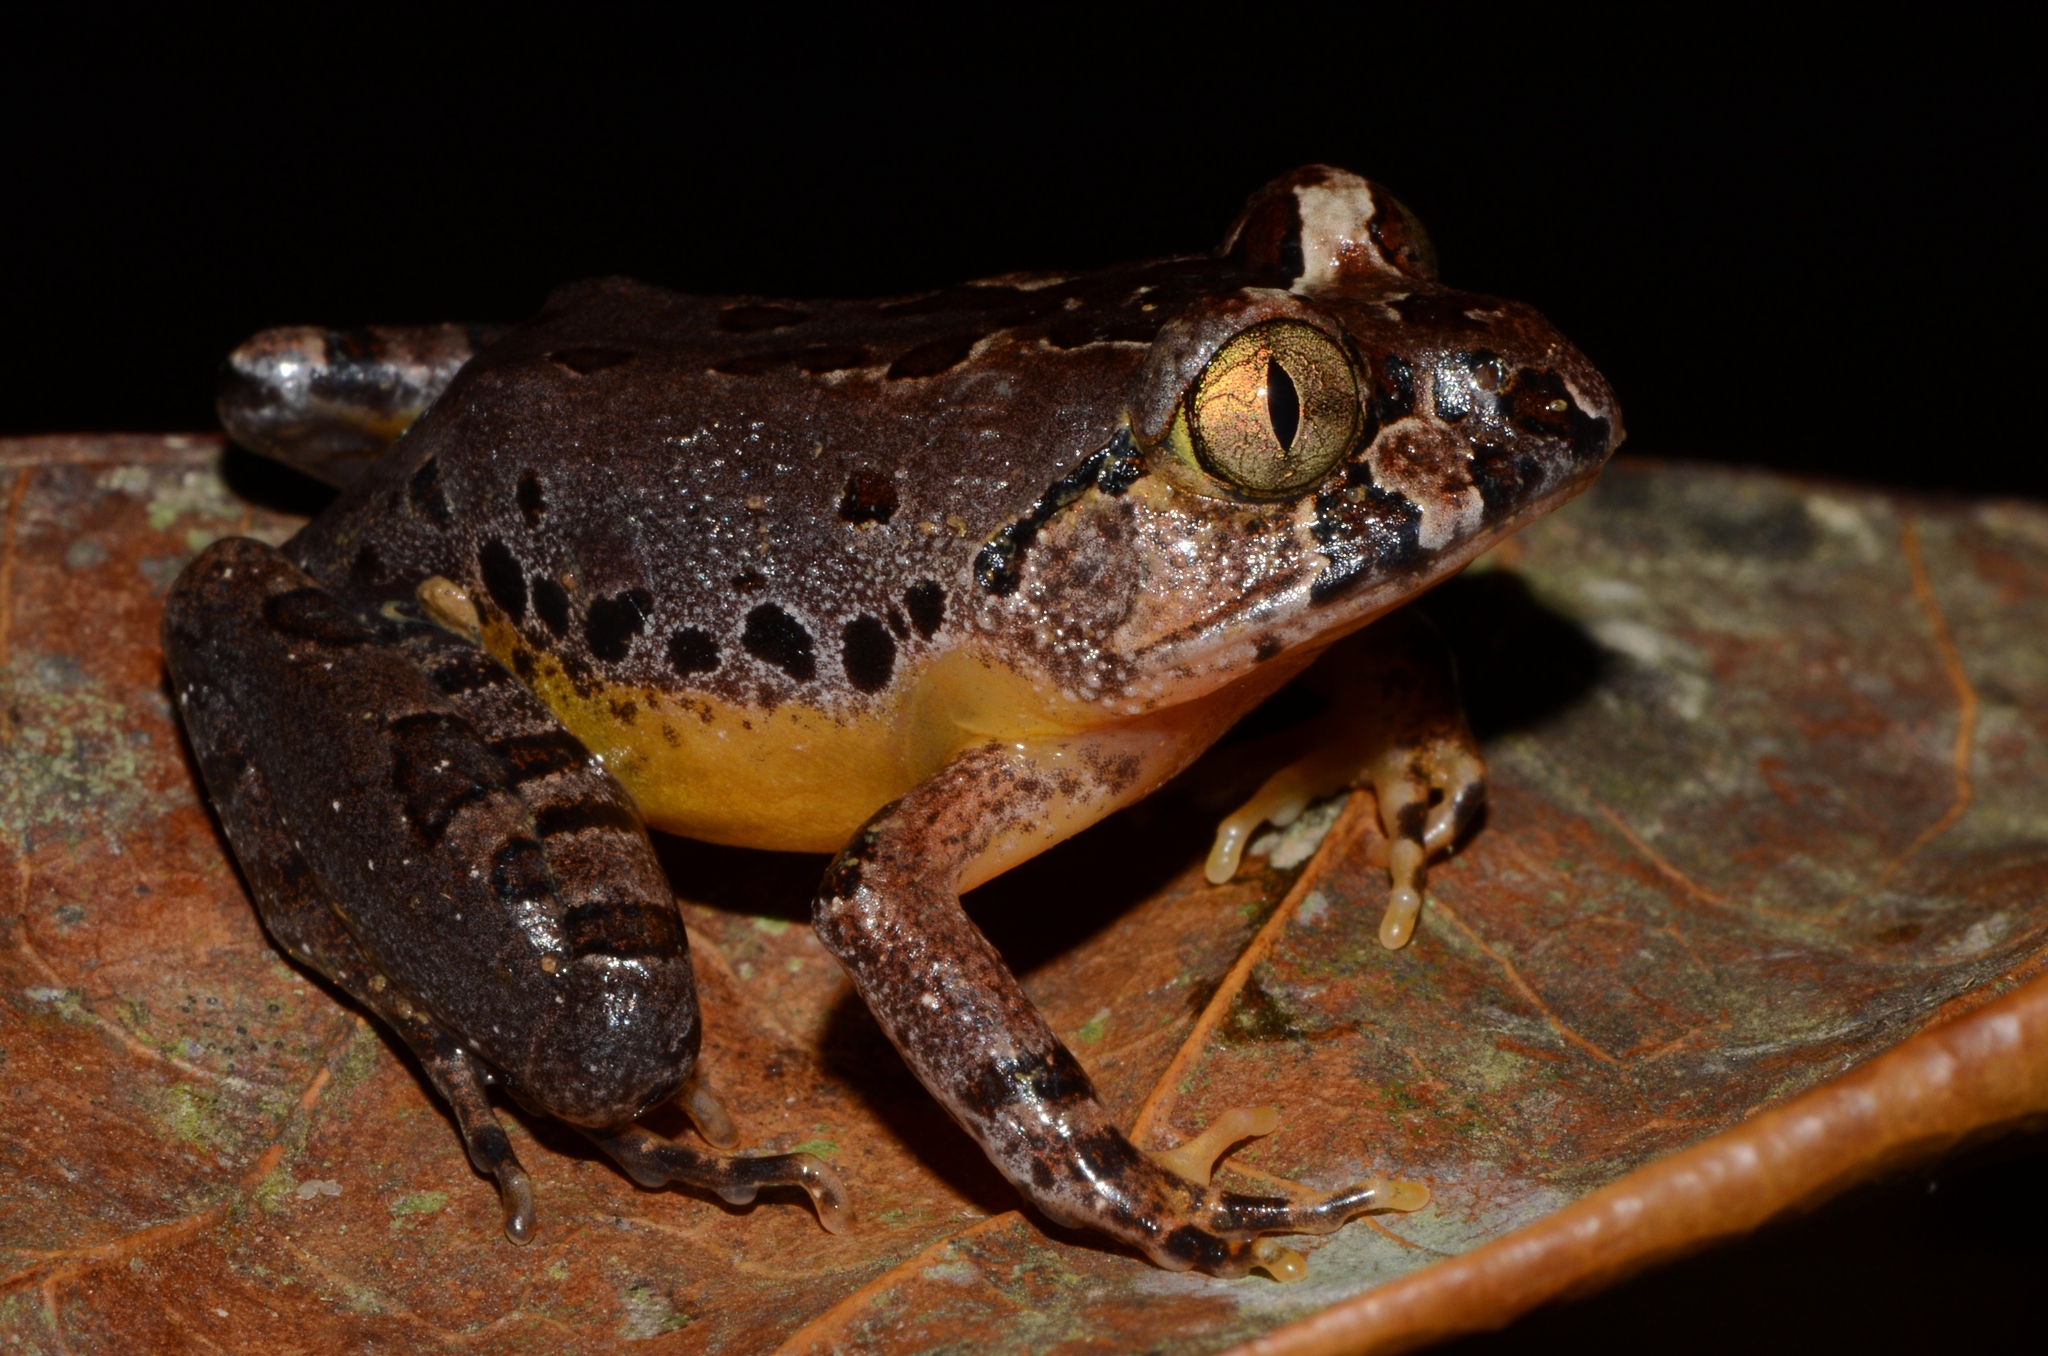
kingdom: Animalia
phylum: Chordata
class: Amphibia
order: Anura
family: Arthroleptidae
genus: Astylosternus
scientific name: Astylosternus batesi
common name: Benito river night frog
